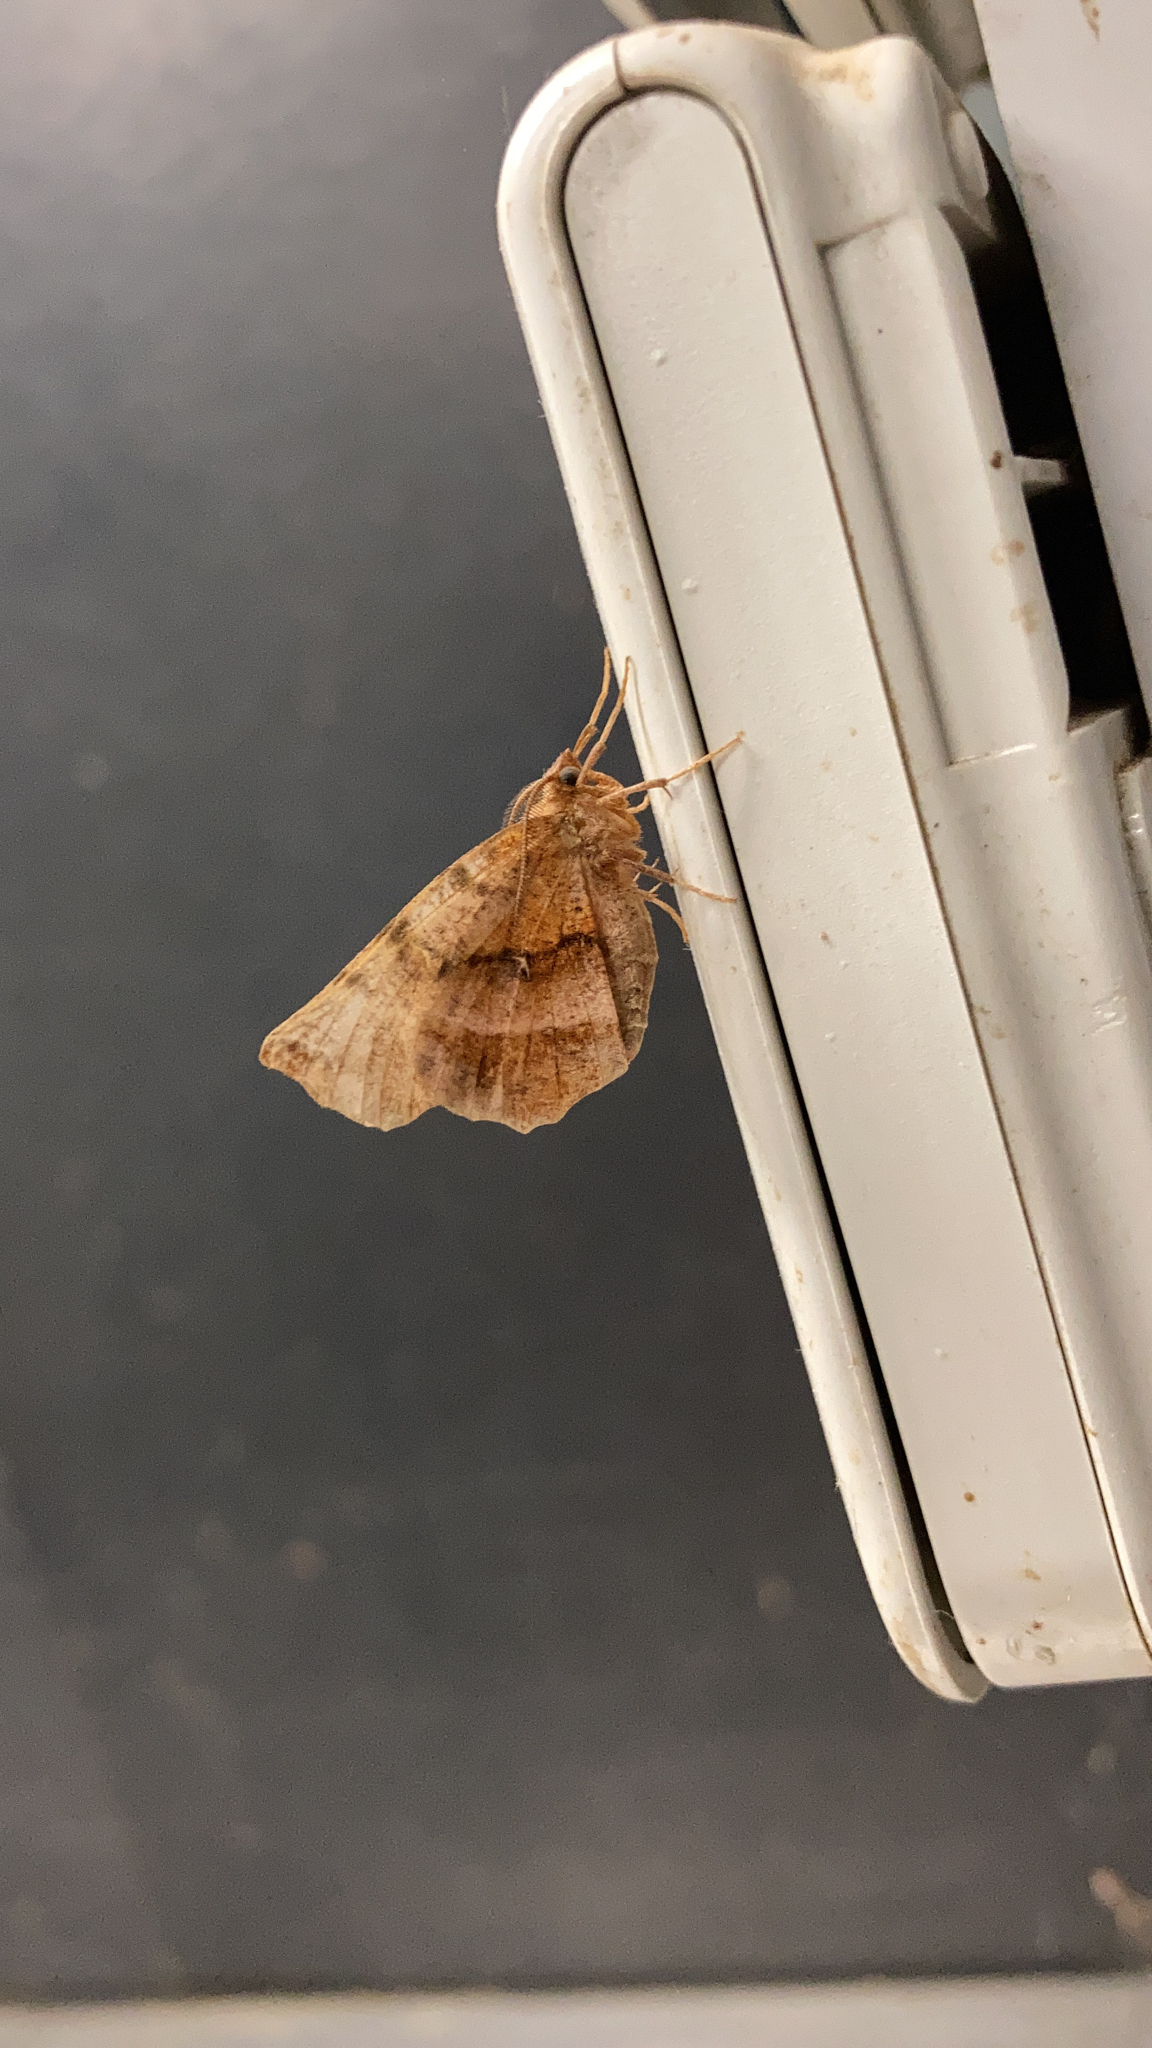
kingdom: Animalia
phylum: Arthropoda
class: Insecta
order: Lepidoptera
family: Geometridae
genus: Selenia
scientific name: Selenia dentaria
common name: Early thorn
